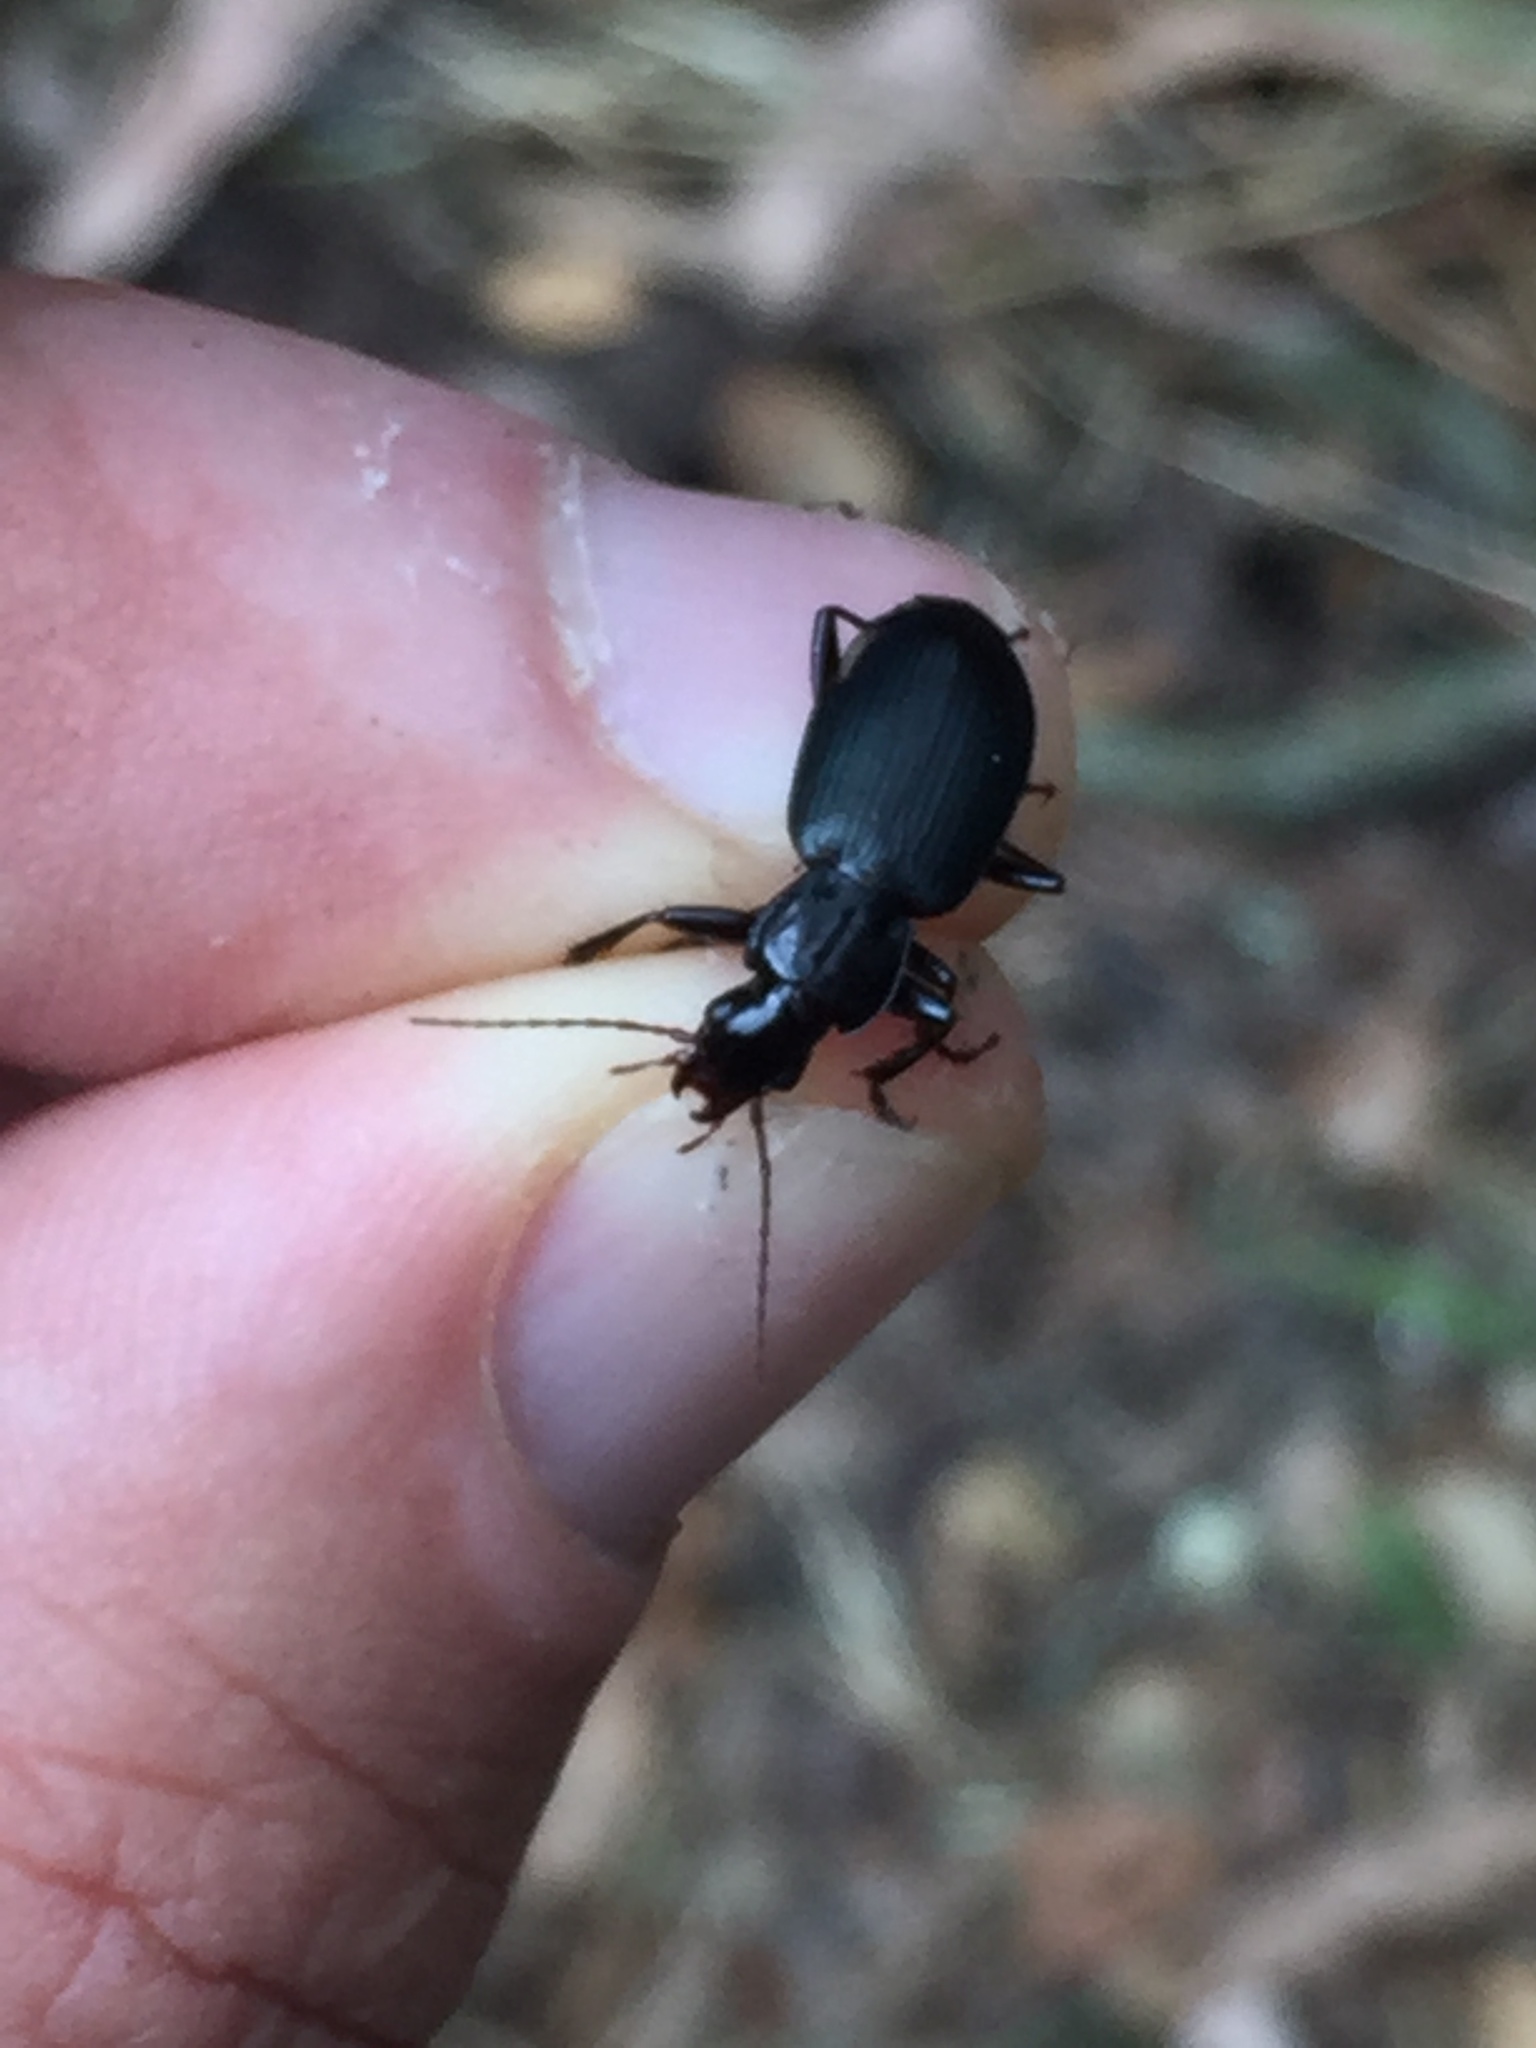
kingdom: Animalia
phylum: Arthropoda
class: Insecta
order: Coleoptera
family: Carabidae
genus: Laemostenus
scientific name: Laemostenus complanatus
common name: Cosmopolitan ground beetle
